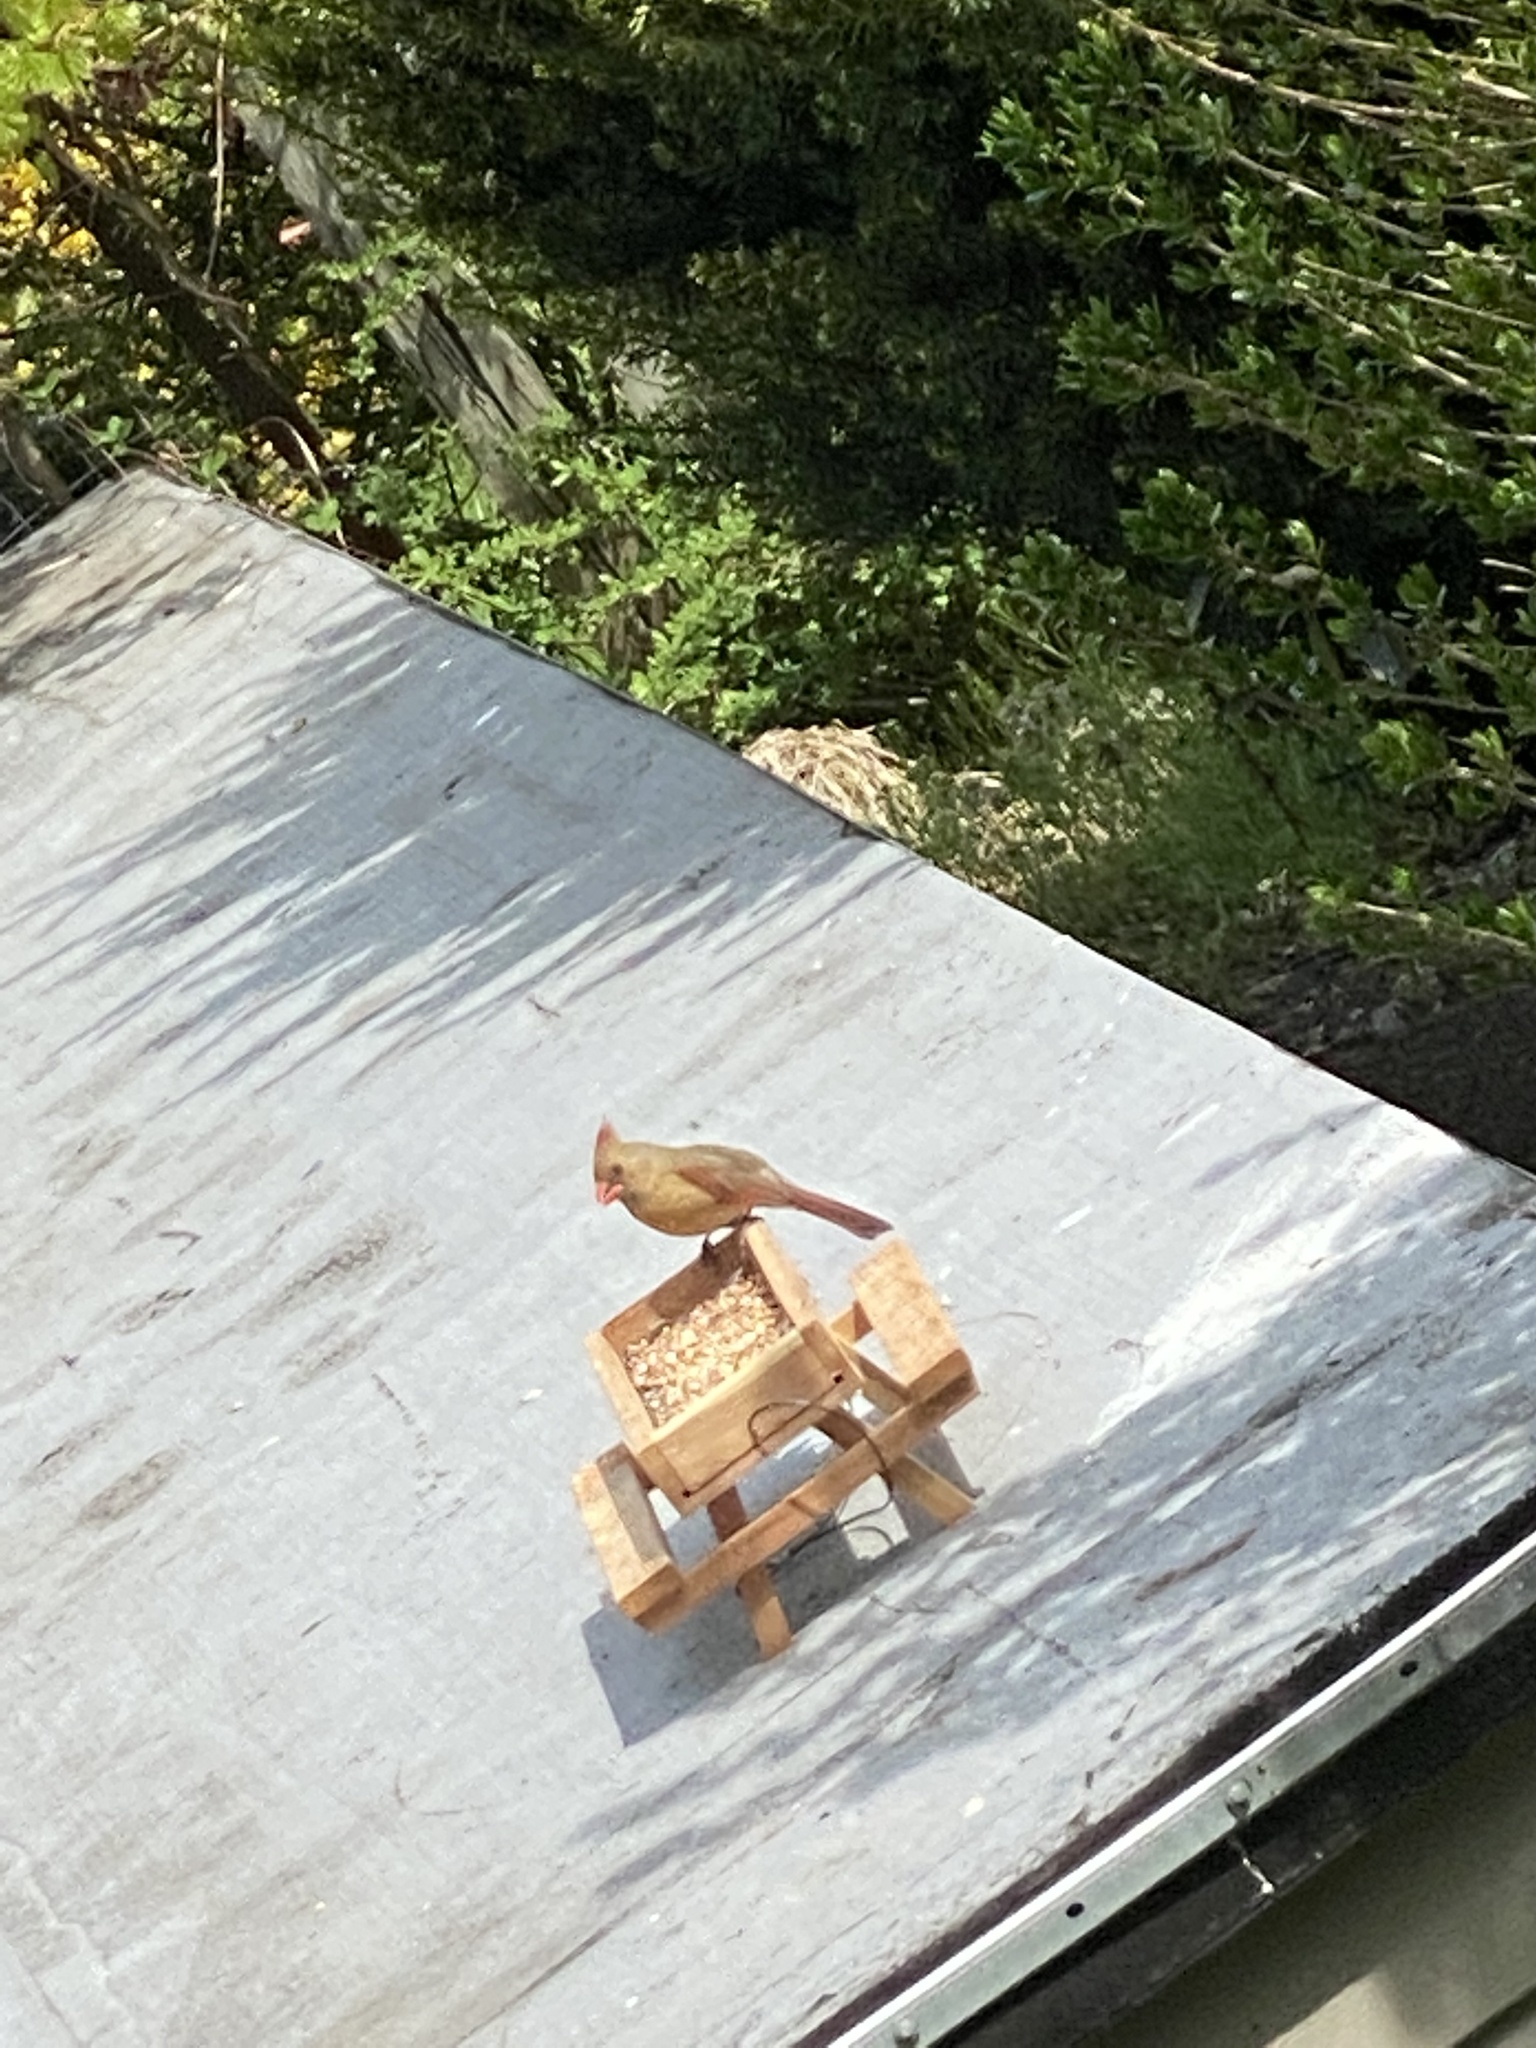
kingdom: Animalia
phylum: Chordata
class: Aves
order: Passeriformes
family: Cardinalidae
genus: Cardinalis
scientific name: Cardinalis cardinalis
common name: Northern cardinal
